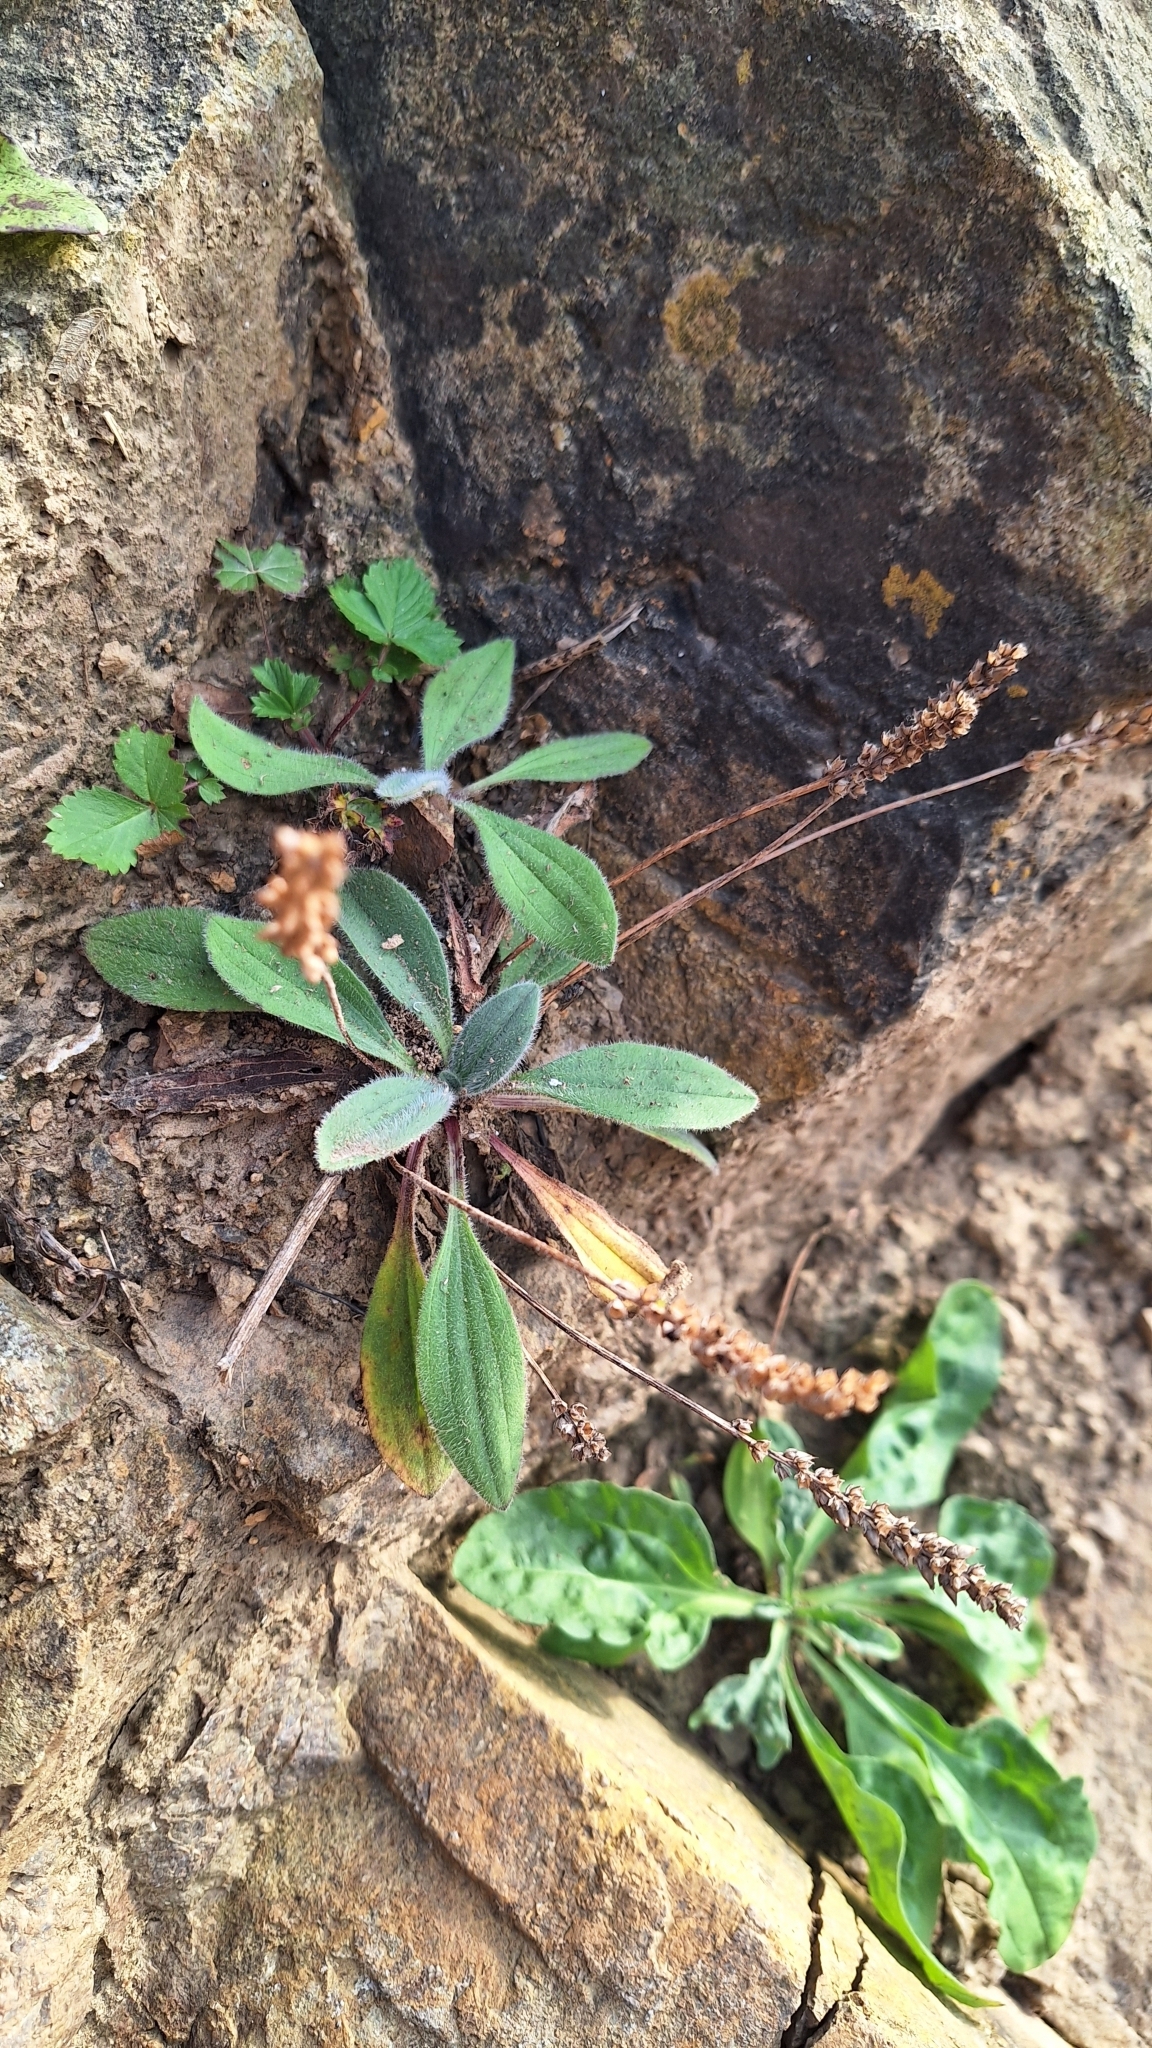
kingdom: Plantae
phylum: Tracheophyta
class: Magnoliopsida
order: Lamiales
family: Plantaginaceae
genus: Plantago
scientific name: Plantago camtschatica
